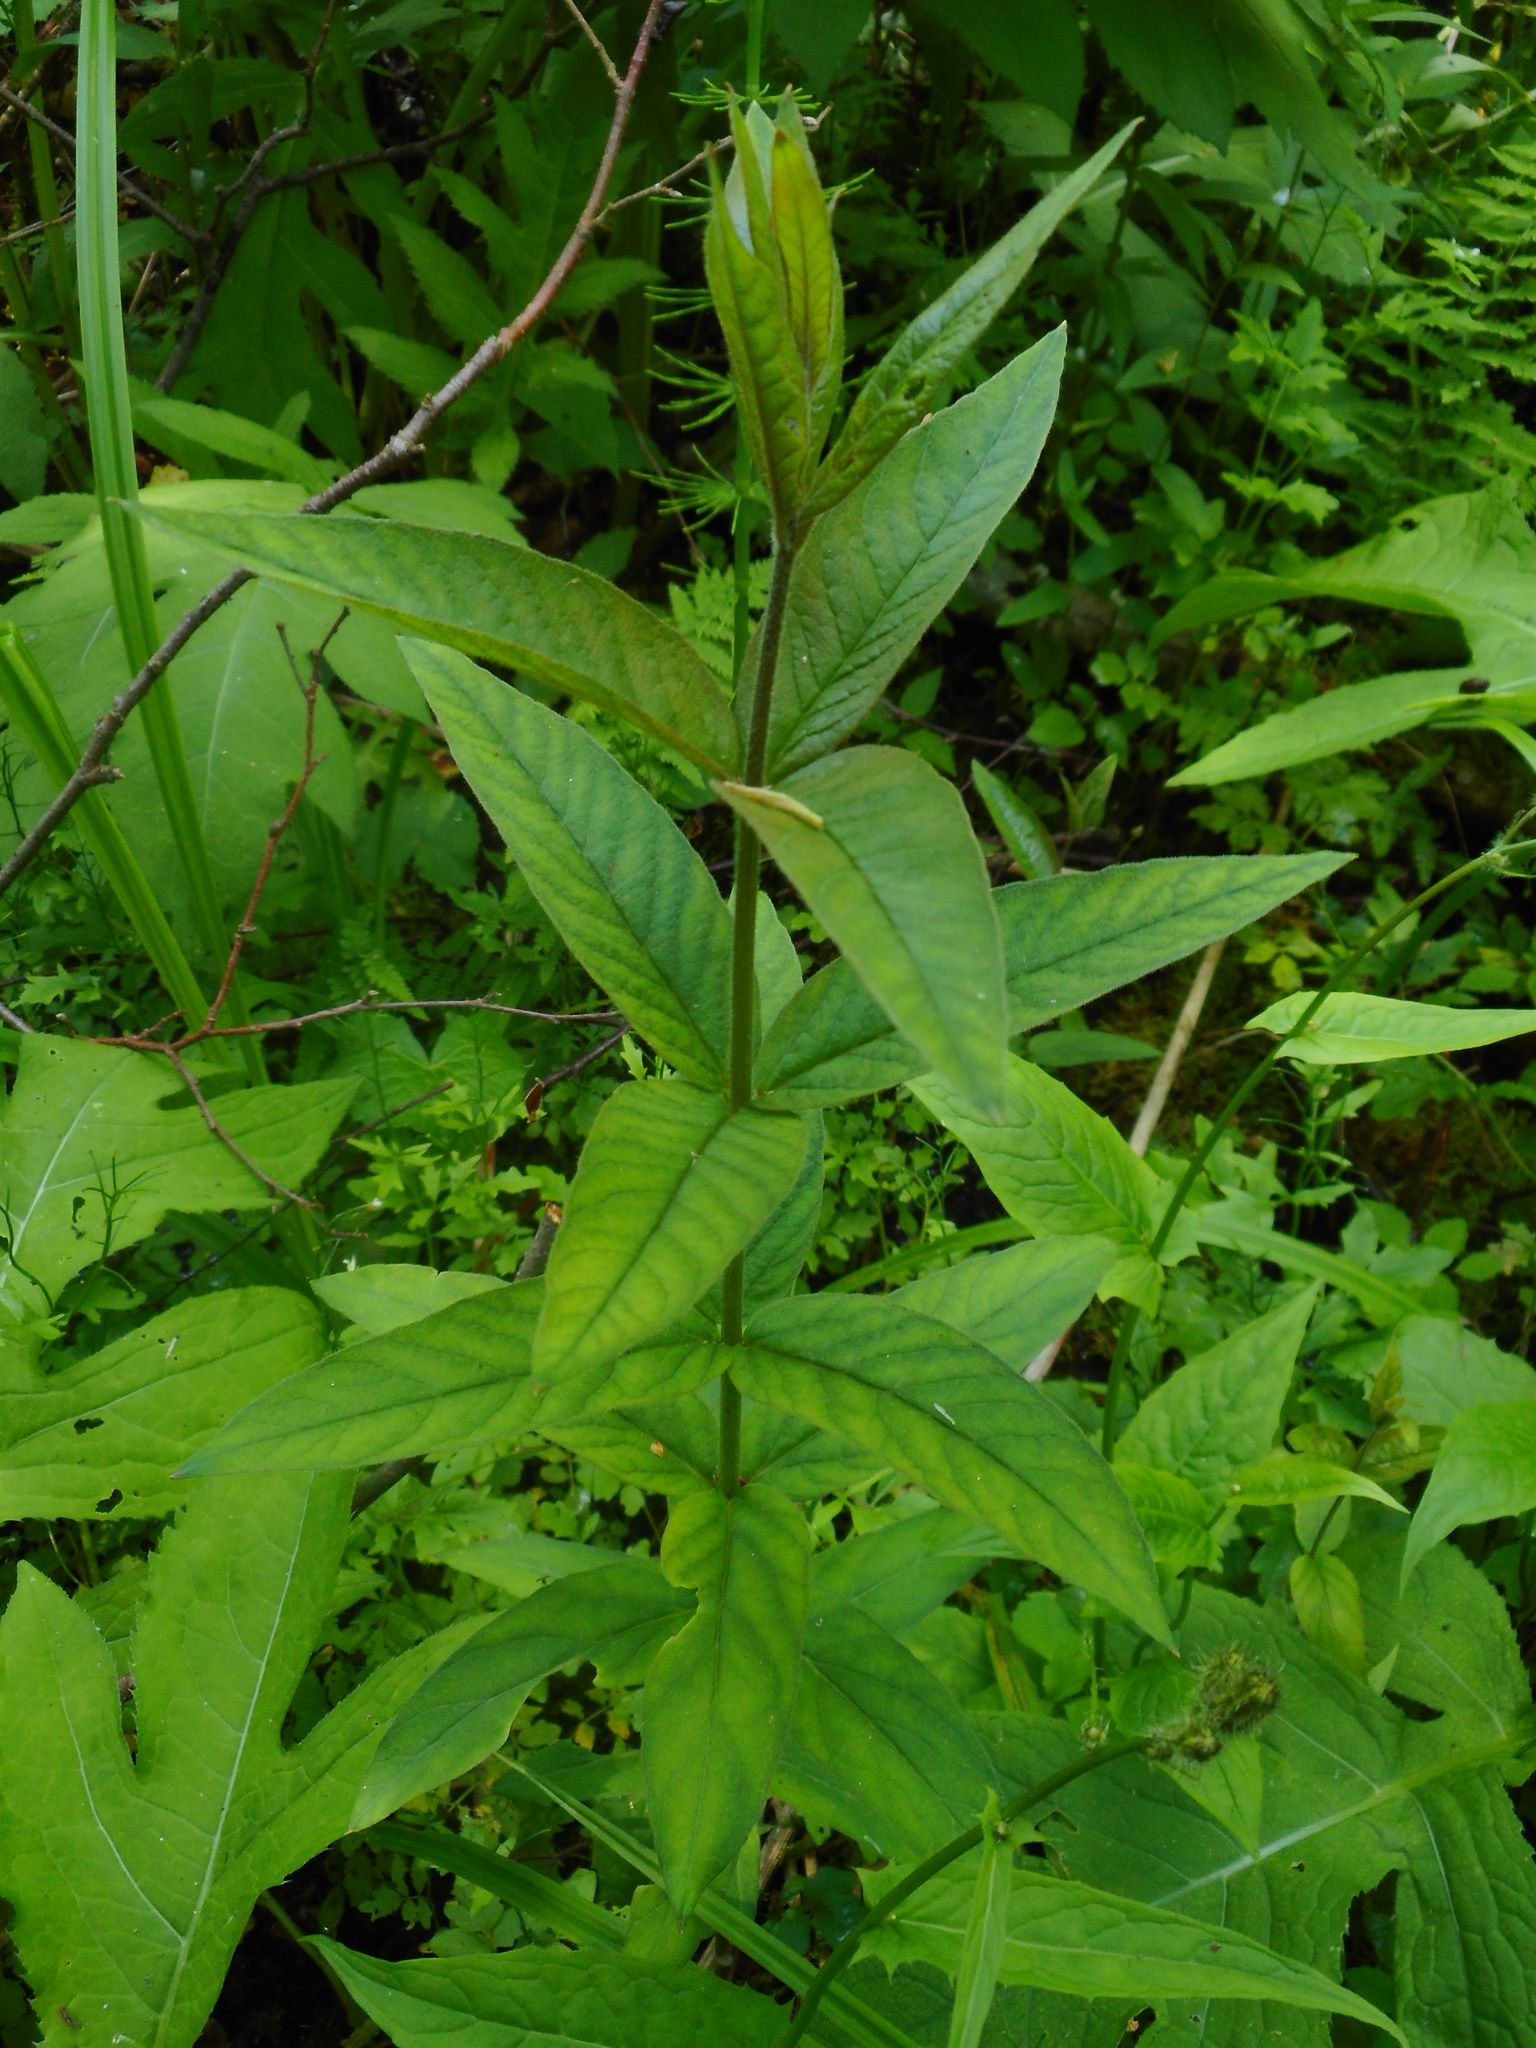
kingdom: Plantae
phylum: Tracheophyta
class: Magnoliopsida
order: Ericales
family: Primulaceae
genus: Lysimachia
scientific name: Lysimachia vulgaris
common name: Yellow loosestrife
